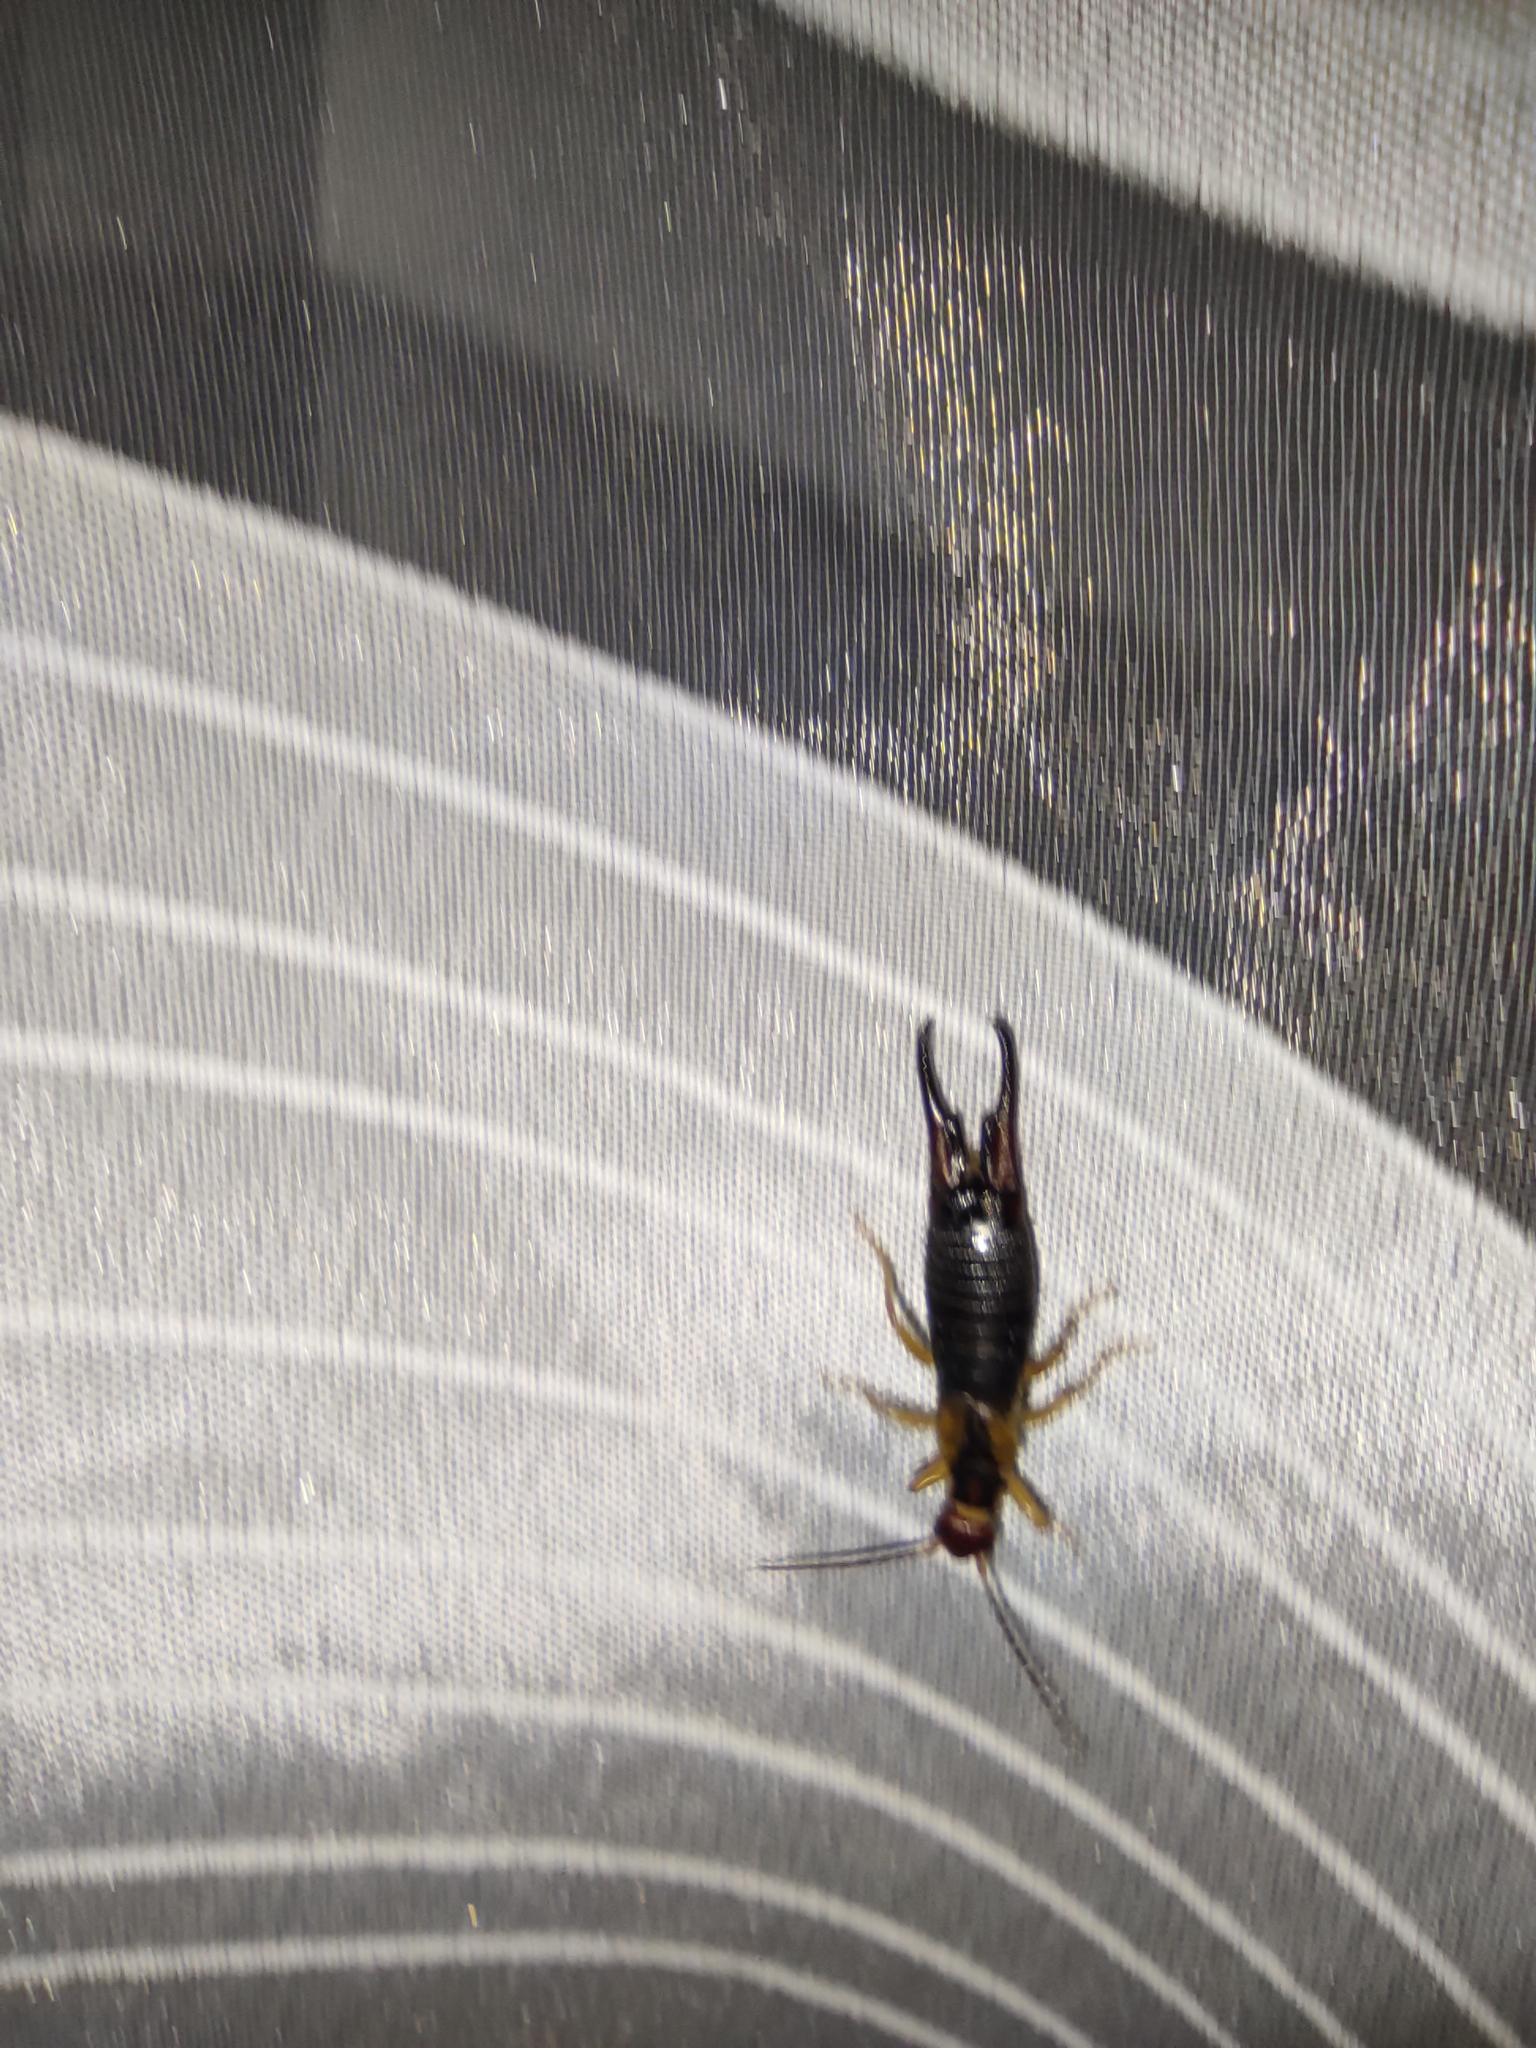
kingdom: Animalia
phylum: Arthropoda
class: Insecta
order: Dermaptera
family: Forficulidae
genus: Forficula
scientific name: Forficula tomis
